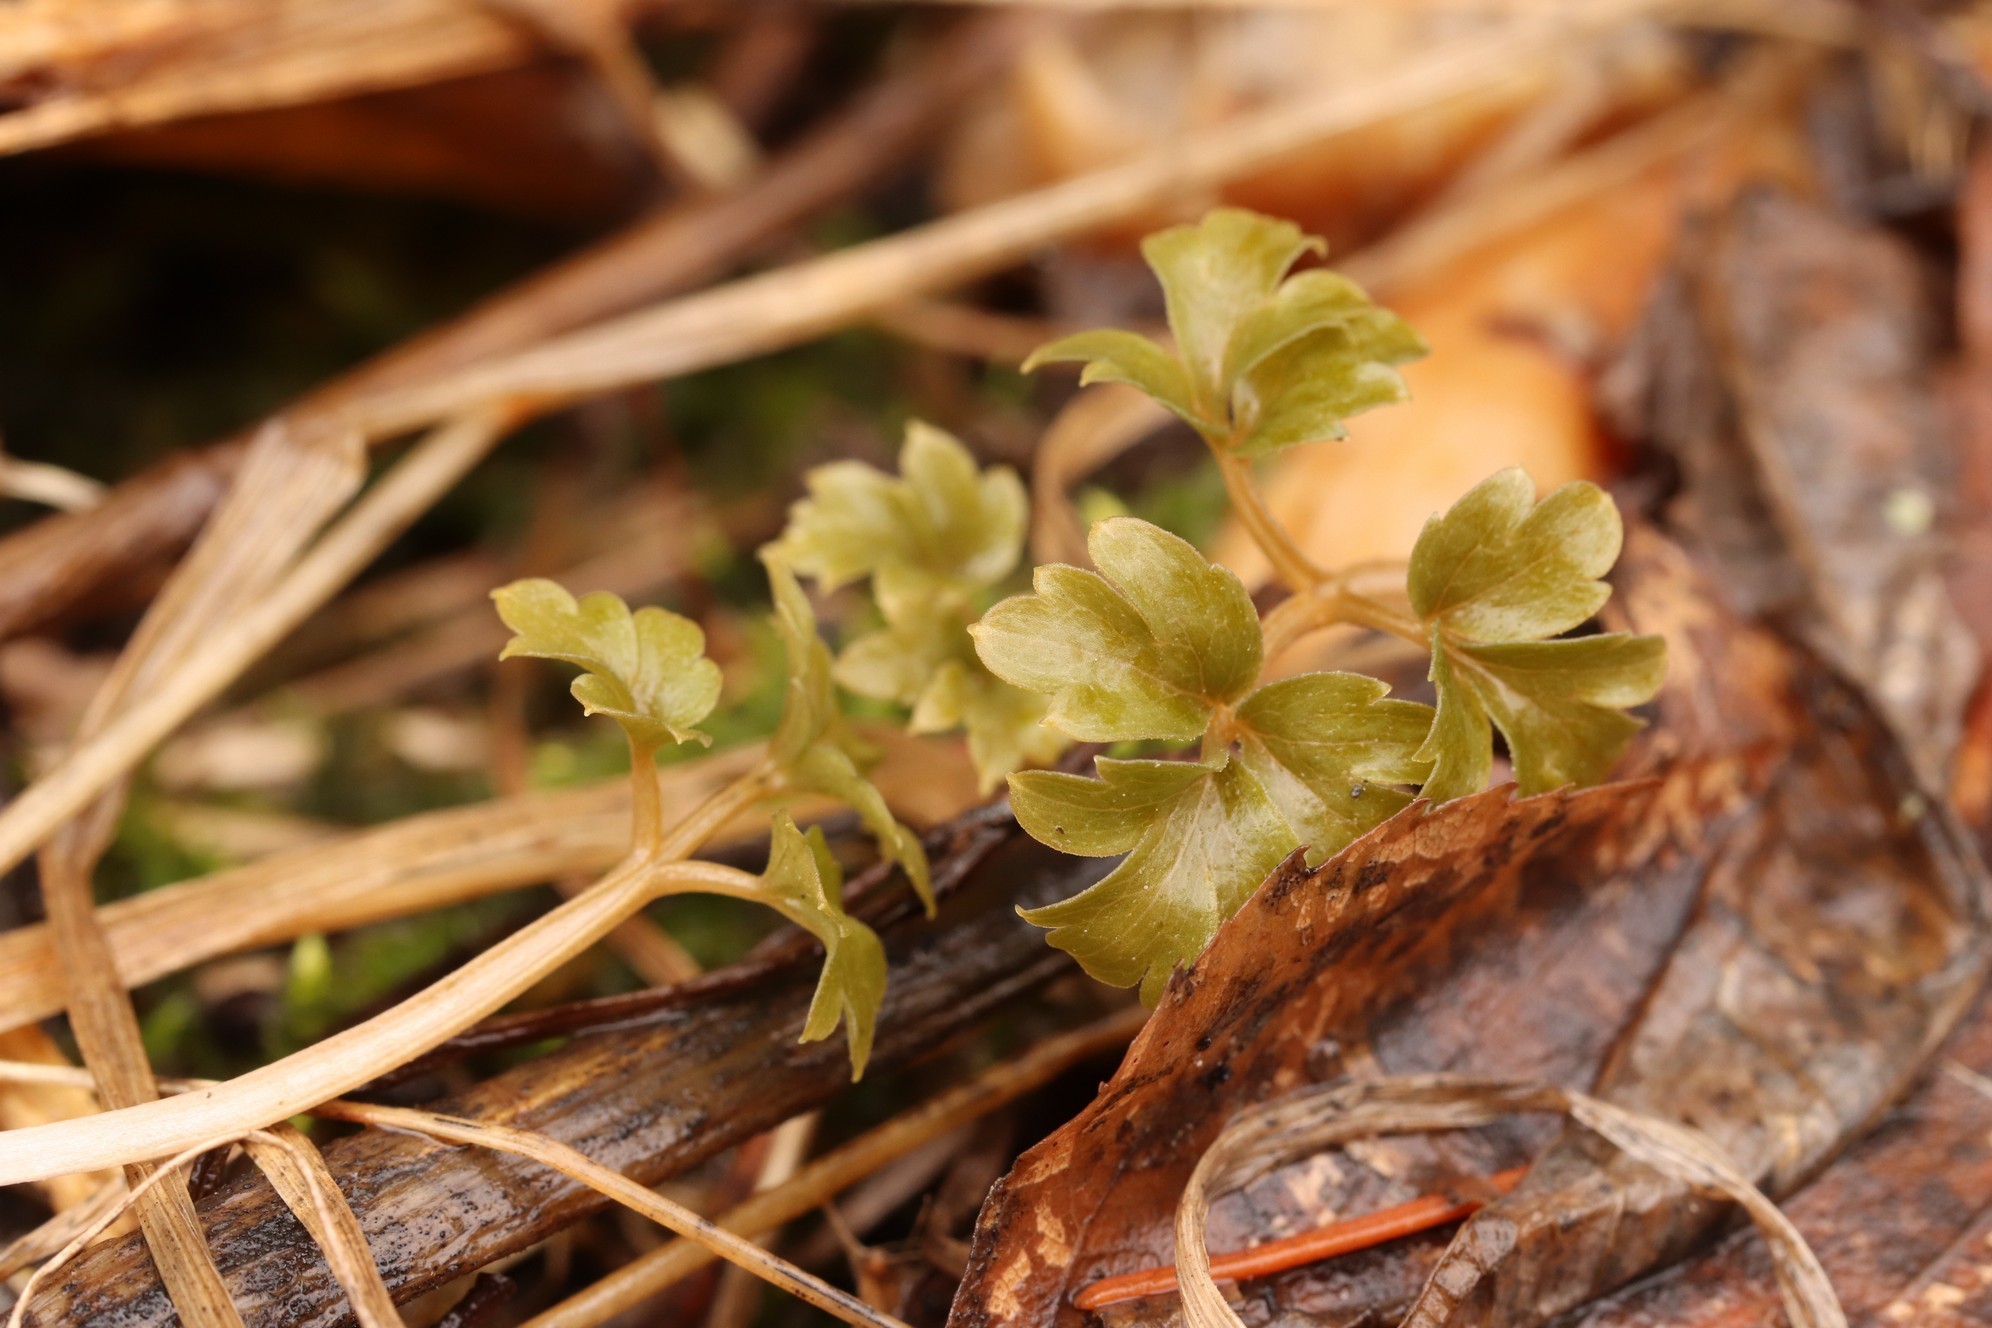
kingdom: Plantae
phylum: Tracheophyta
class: Magnoliopsida
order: Dipsacales
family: Viburnaceae
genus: Adoxa
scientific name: Adoxa moschatellina
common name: Moschatel
